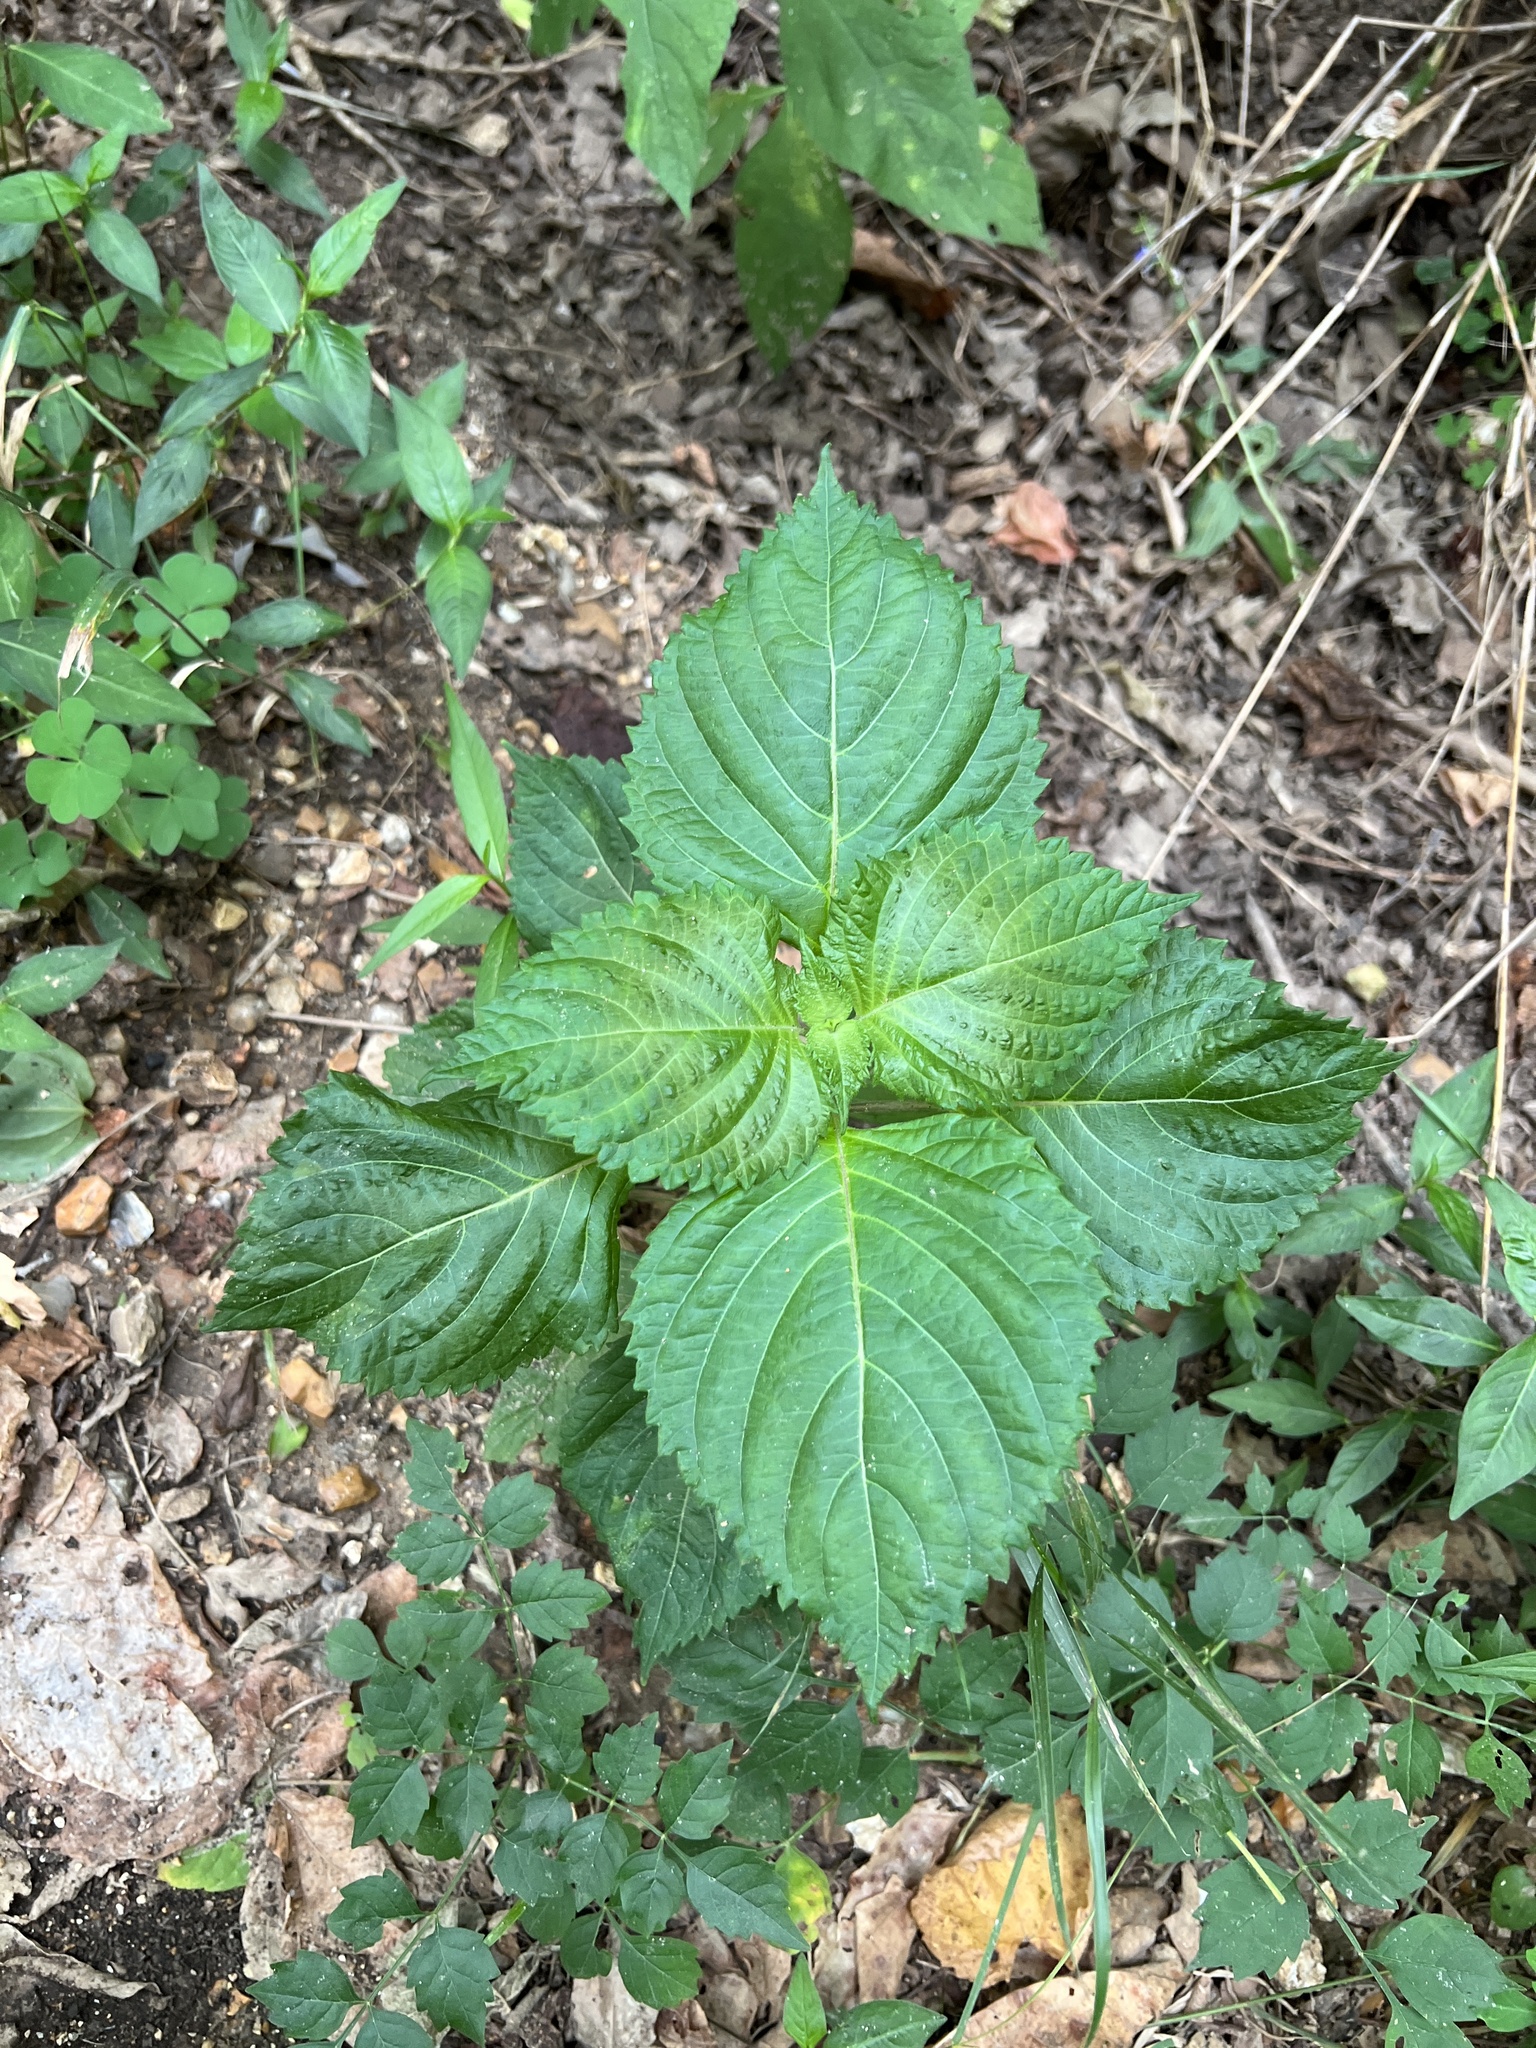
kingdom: Plantae
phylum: Tracheophyta
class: Magnoliopsida
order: Lamiales
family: Lamiaceae
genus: Perilla
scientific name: Perilla frutescens
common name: Perilla
